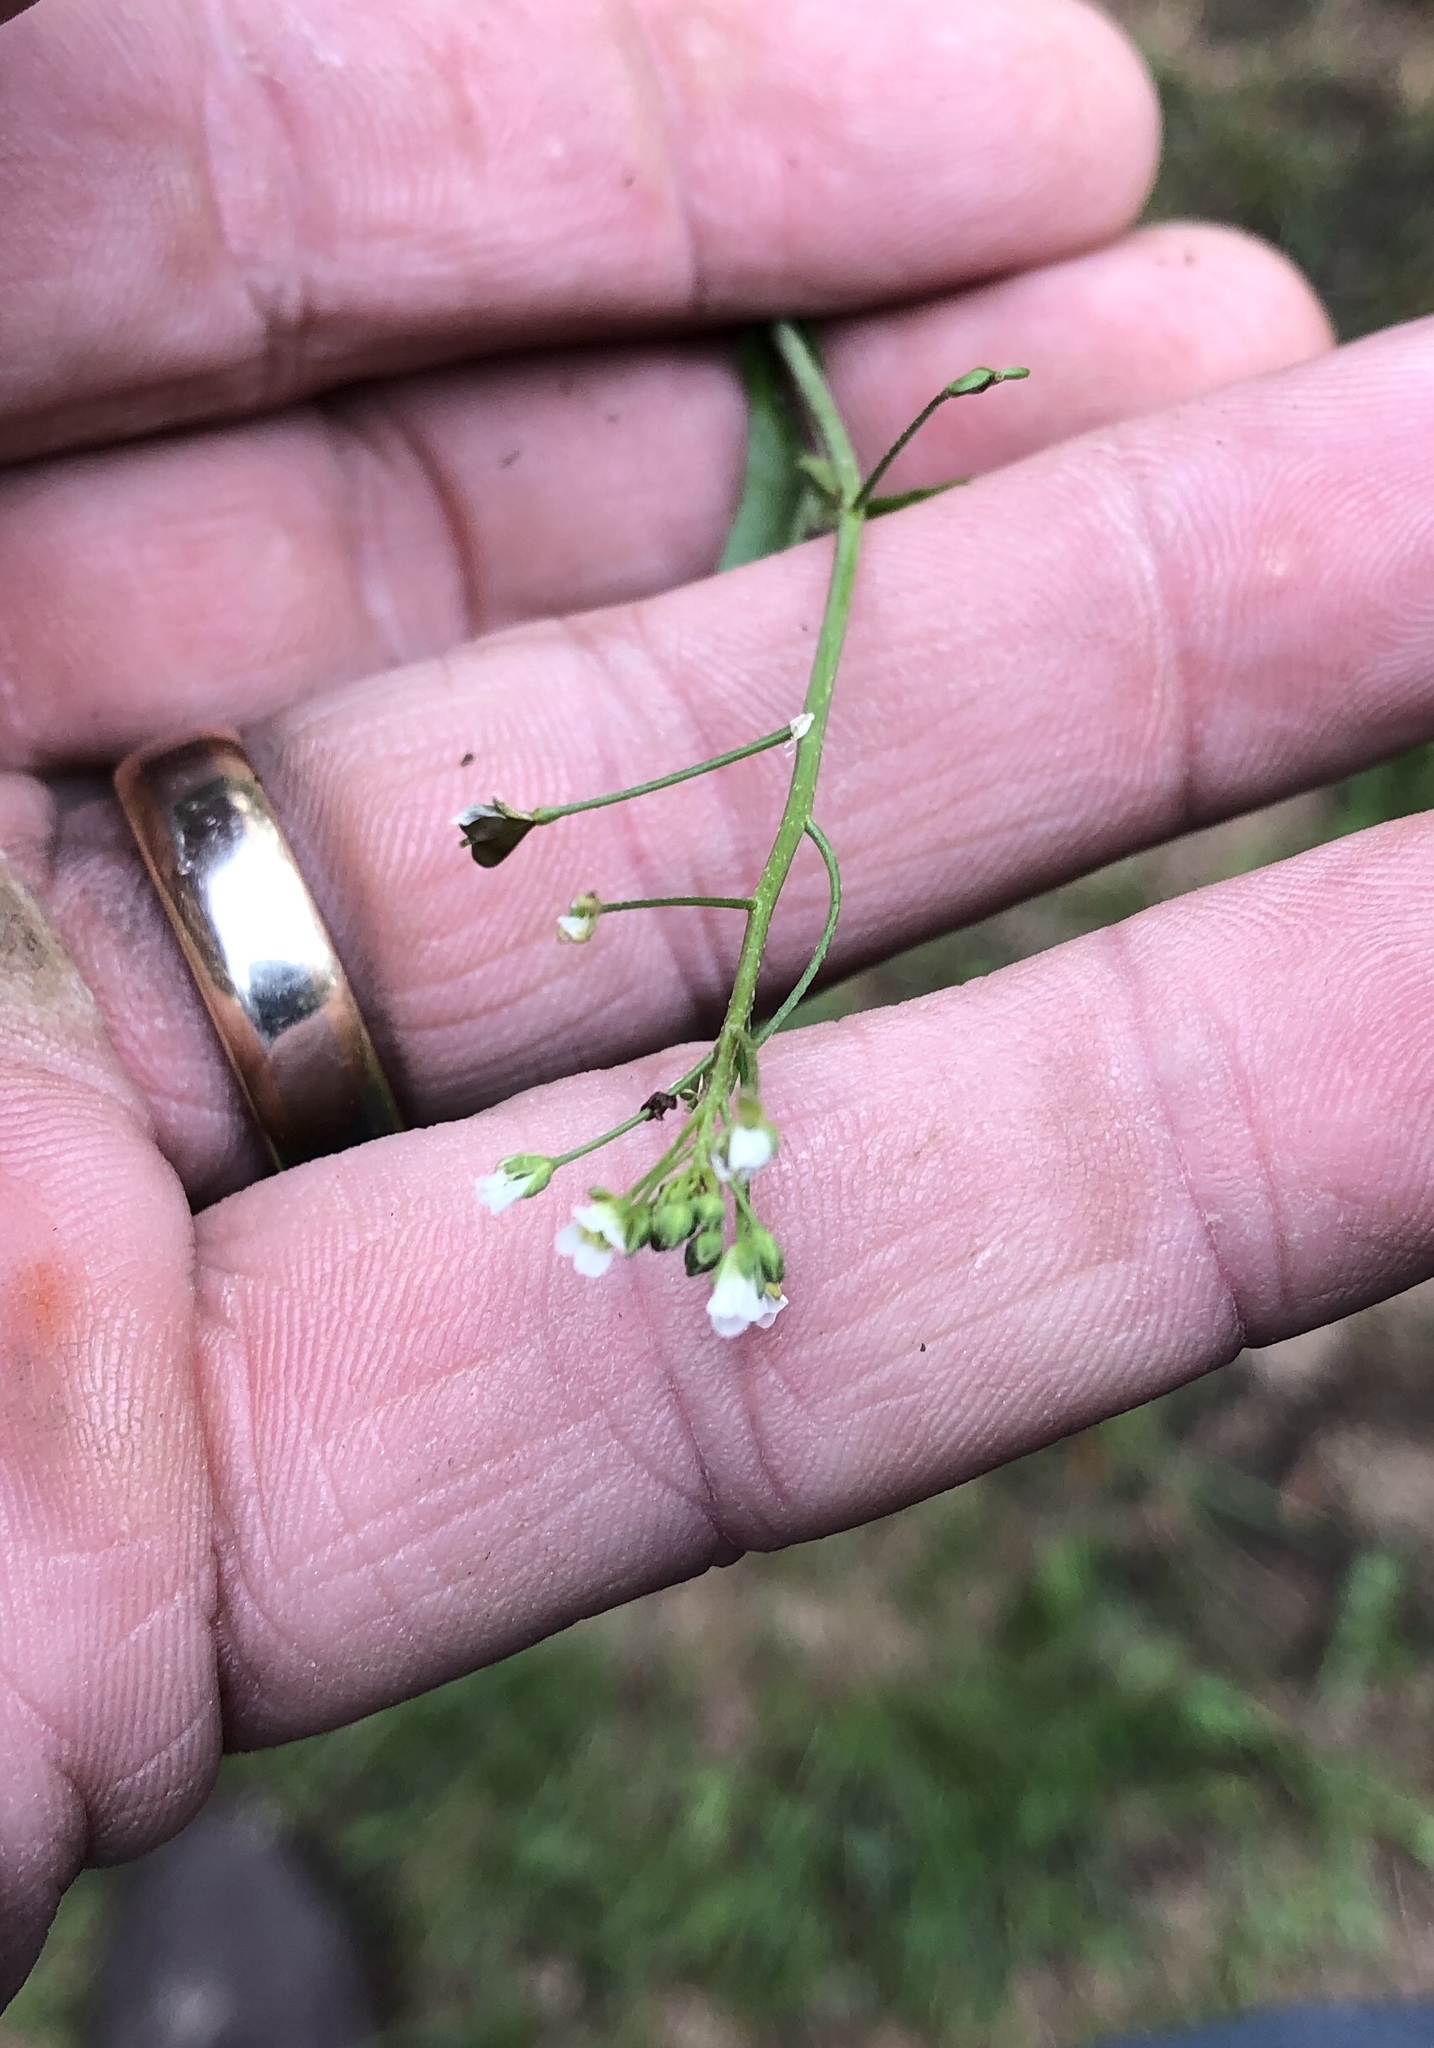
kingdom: Plantae
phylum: Tracheophyta
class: Magnoliopsida
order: Brassicales
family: Brassicaceae
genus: Capsella
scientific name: Capsella bursa-pastoris
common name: Shepherd's purse
